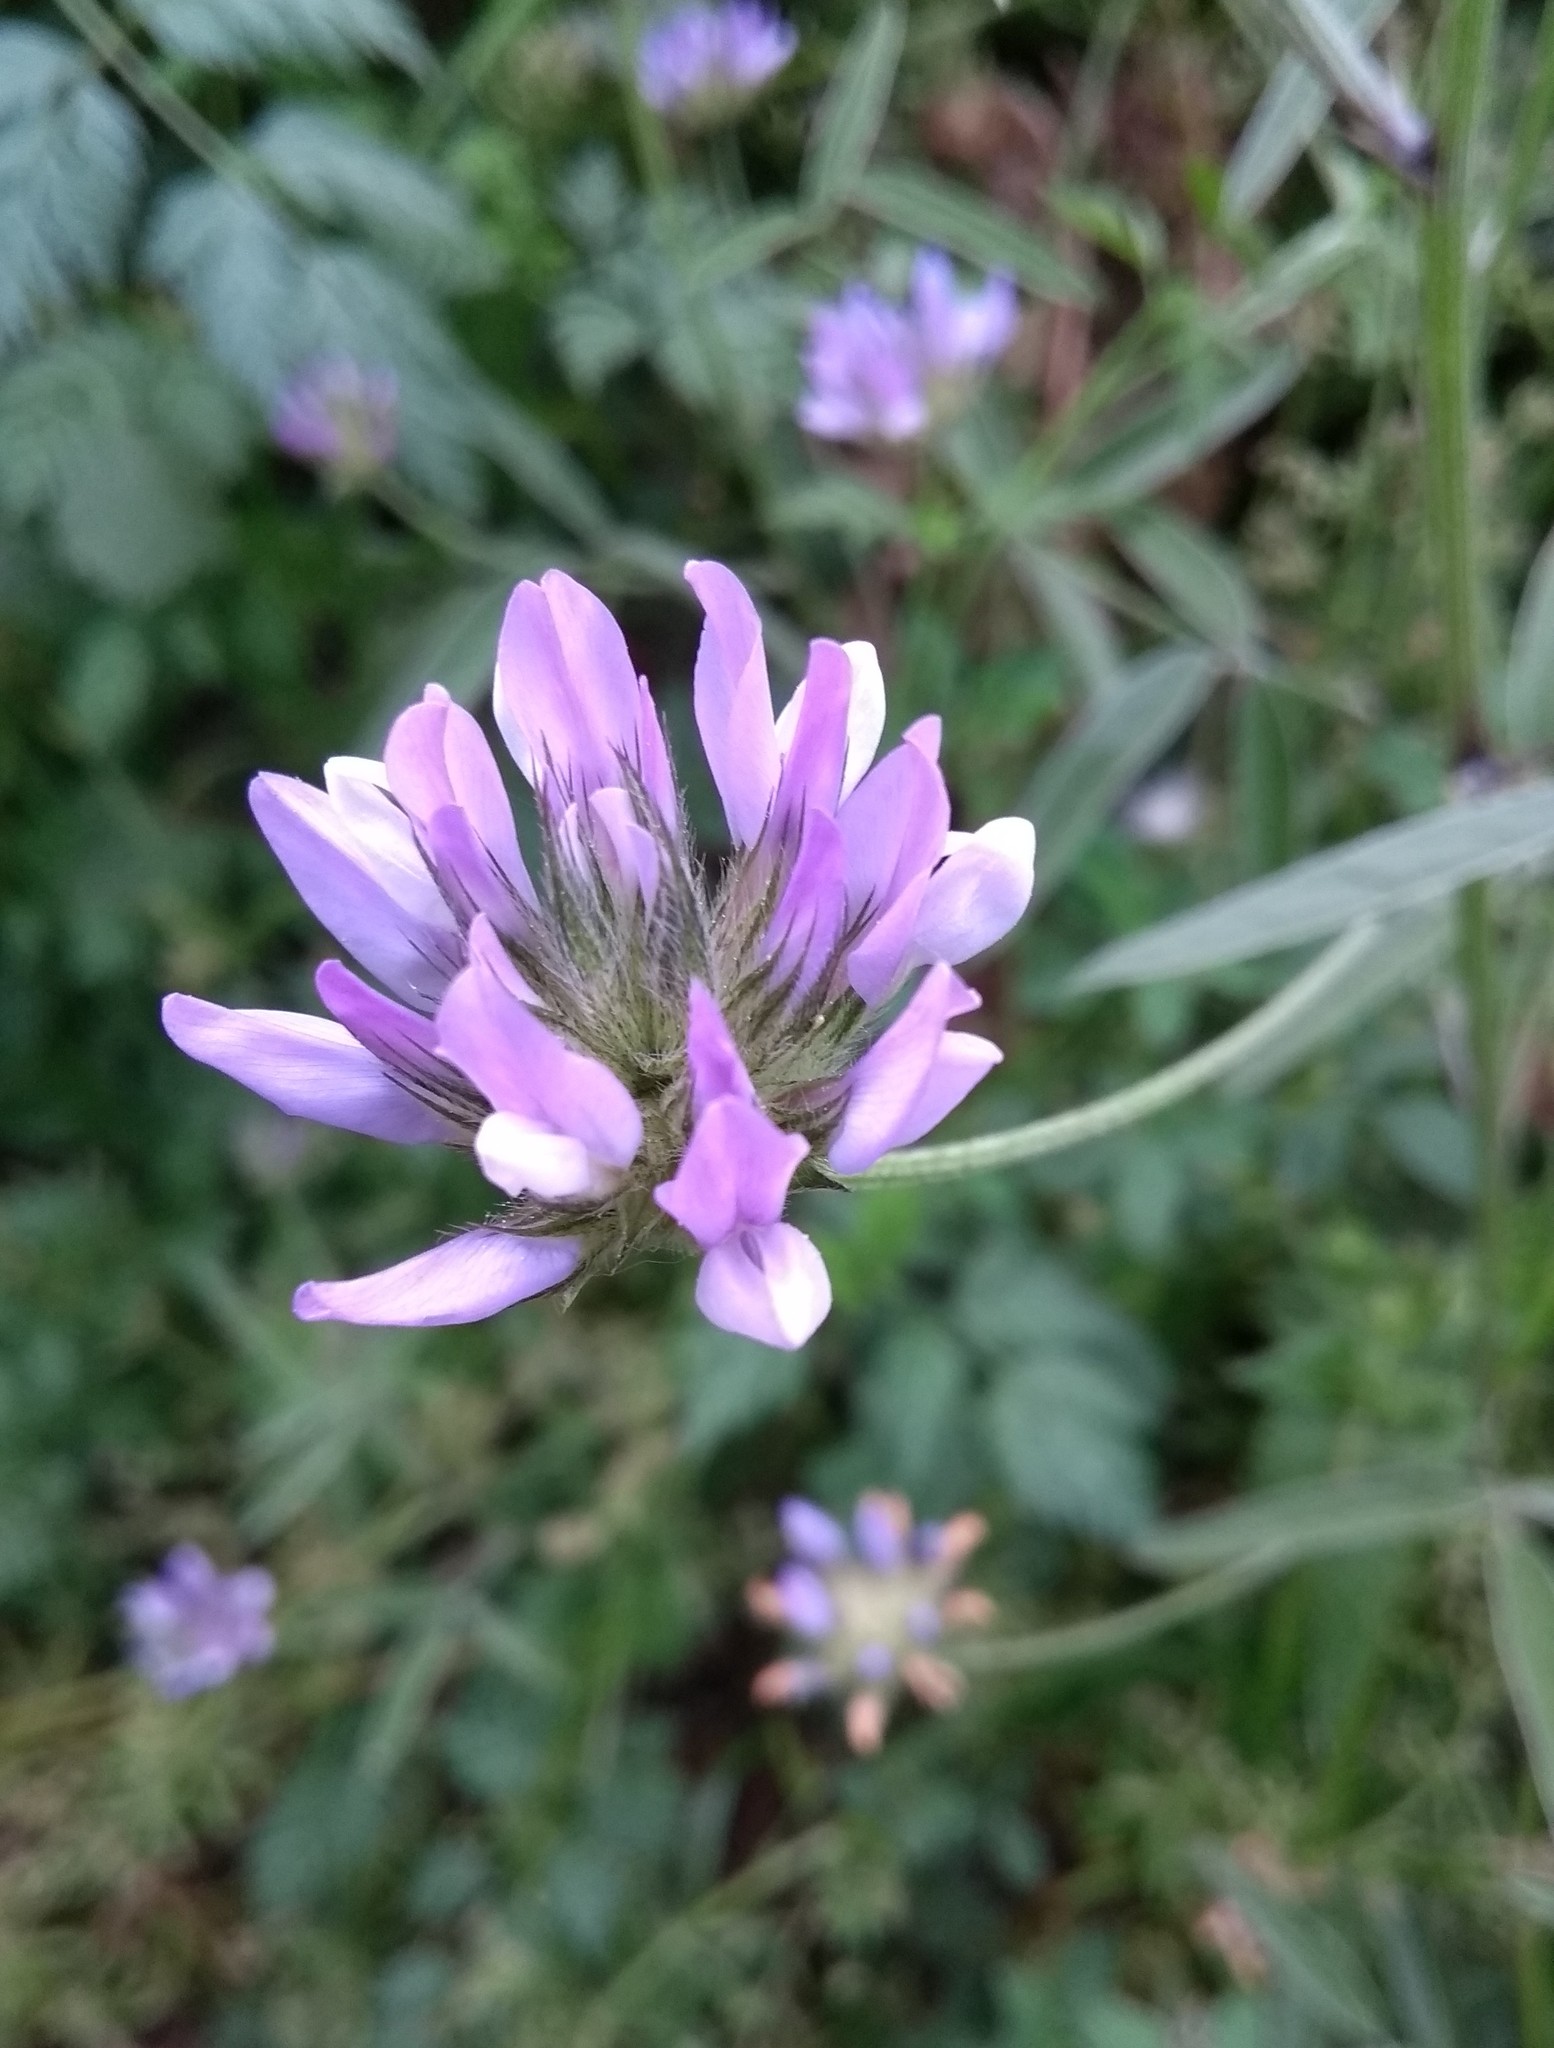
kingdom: Plantae
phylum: Tracheophyta
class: Magnoliopsida
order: Fabales
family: Fabaceae
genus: Bituminaria
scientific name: Bituminaria bituminosa
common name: Arabian pea
